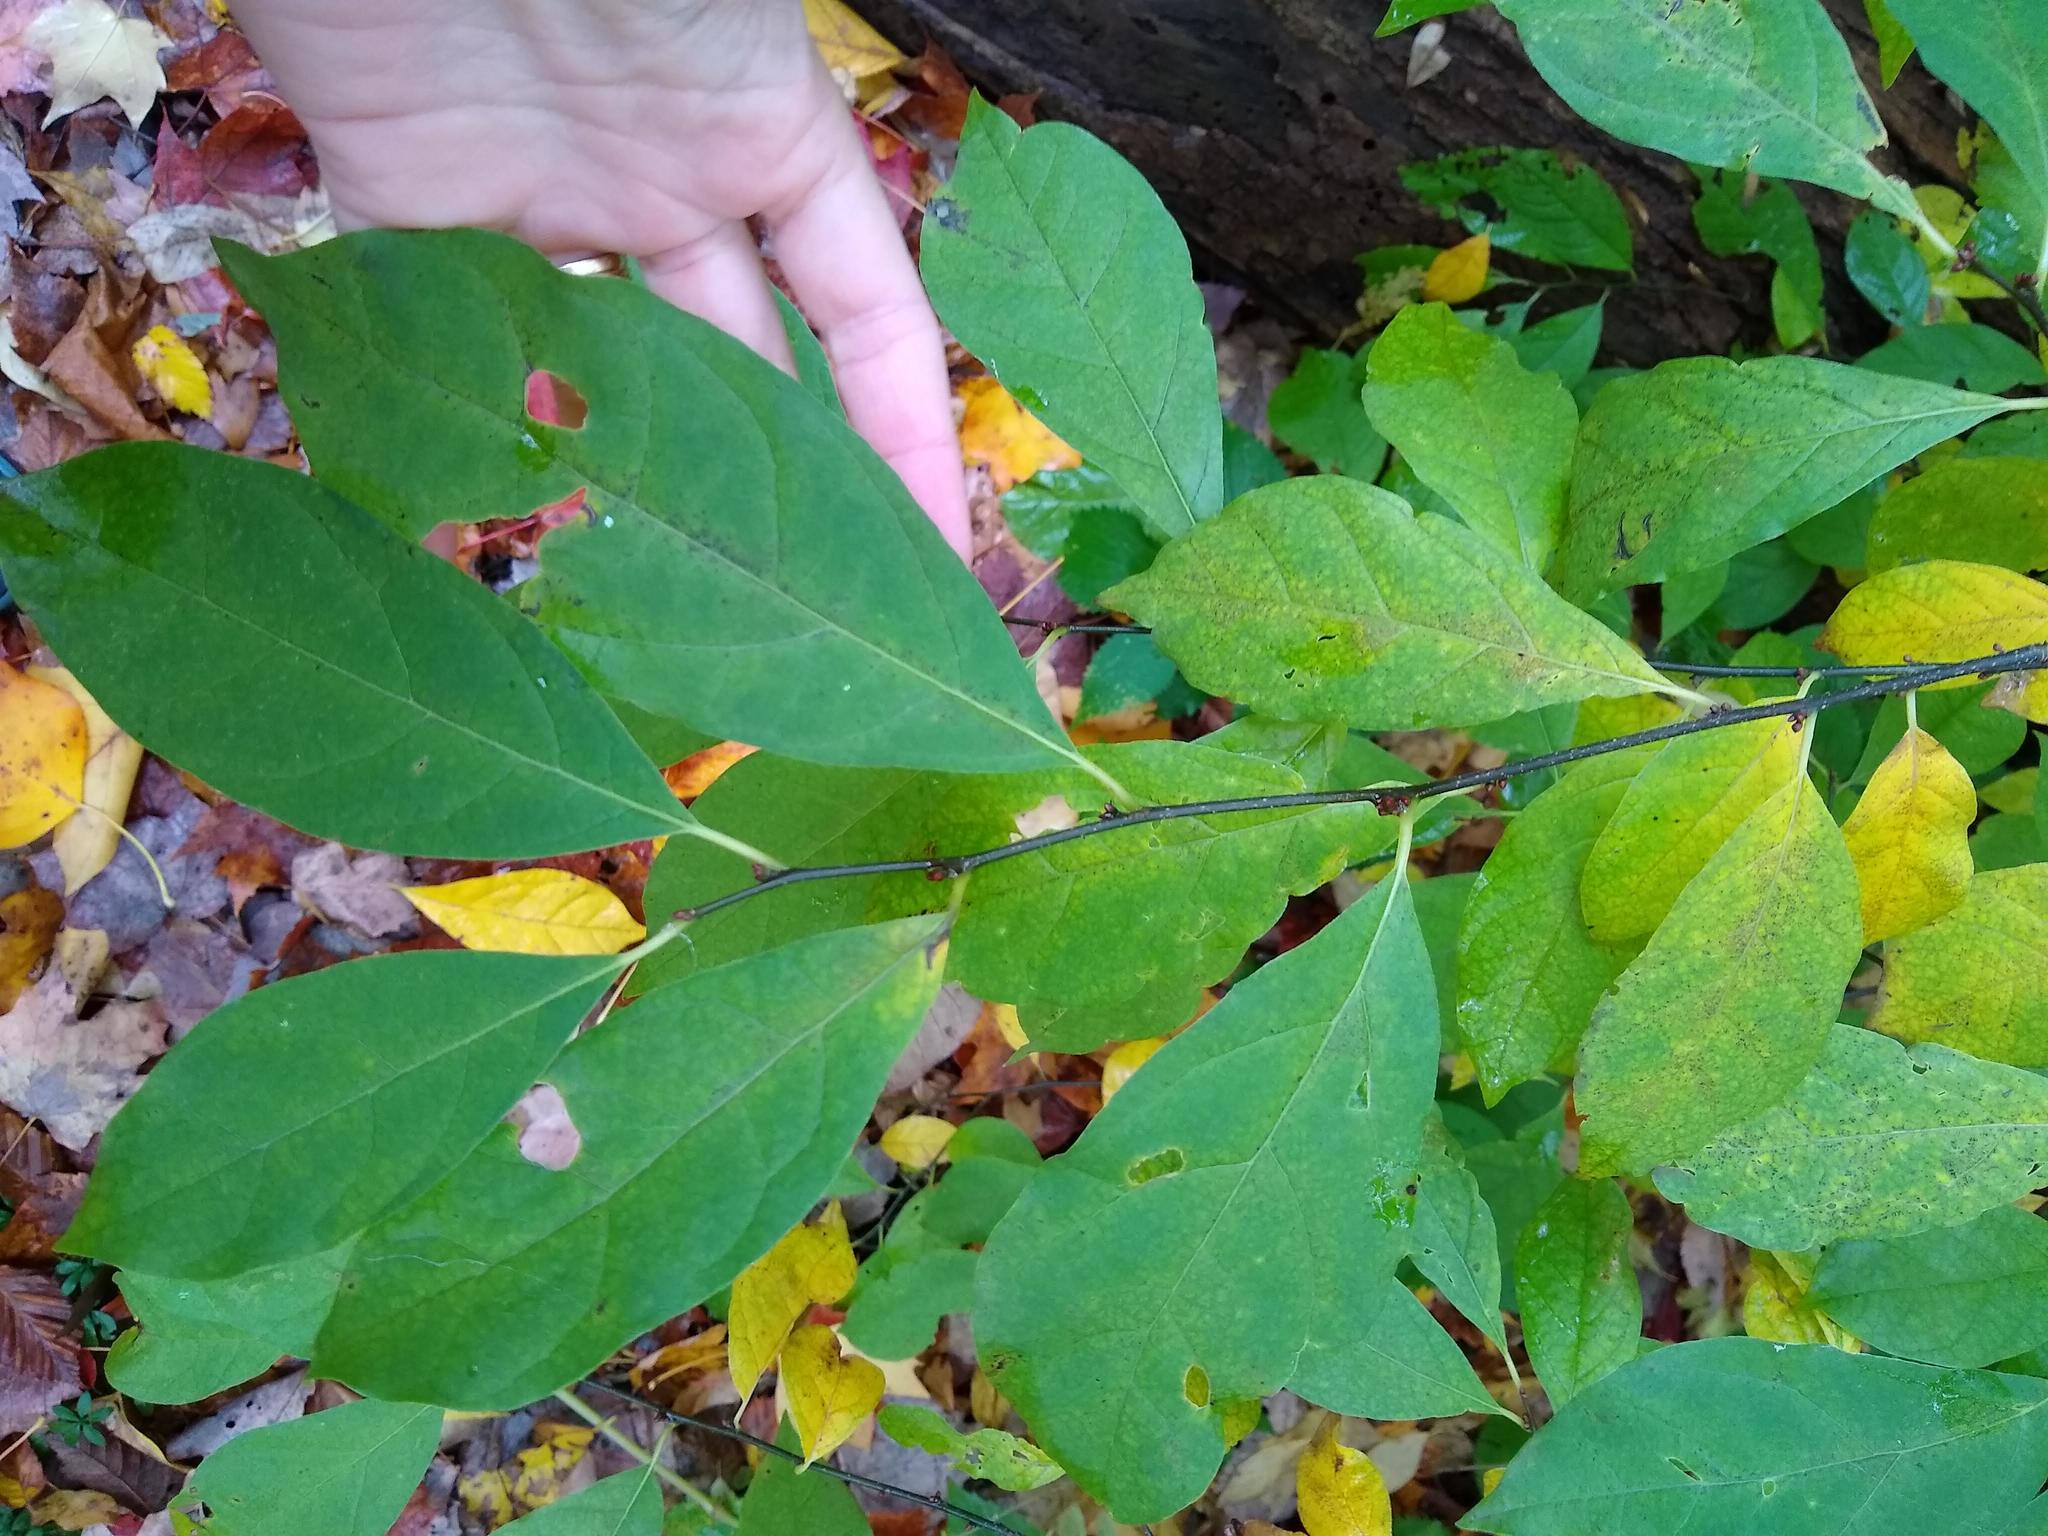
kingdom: Plantae
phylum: Tracheophyta
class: Magnoliopsida
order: Laurales
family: Lauraceae
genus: Lindera
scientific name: Lindera benzoin
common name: Spicebush
